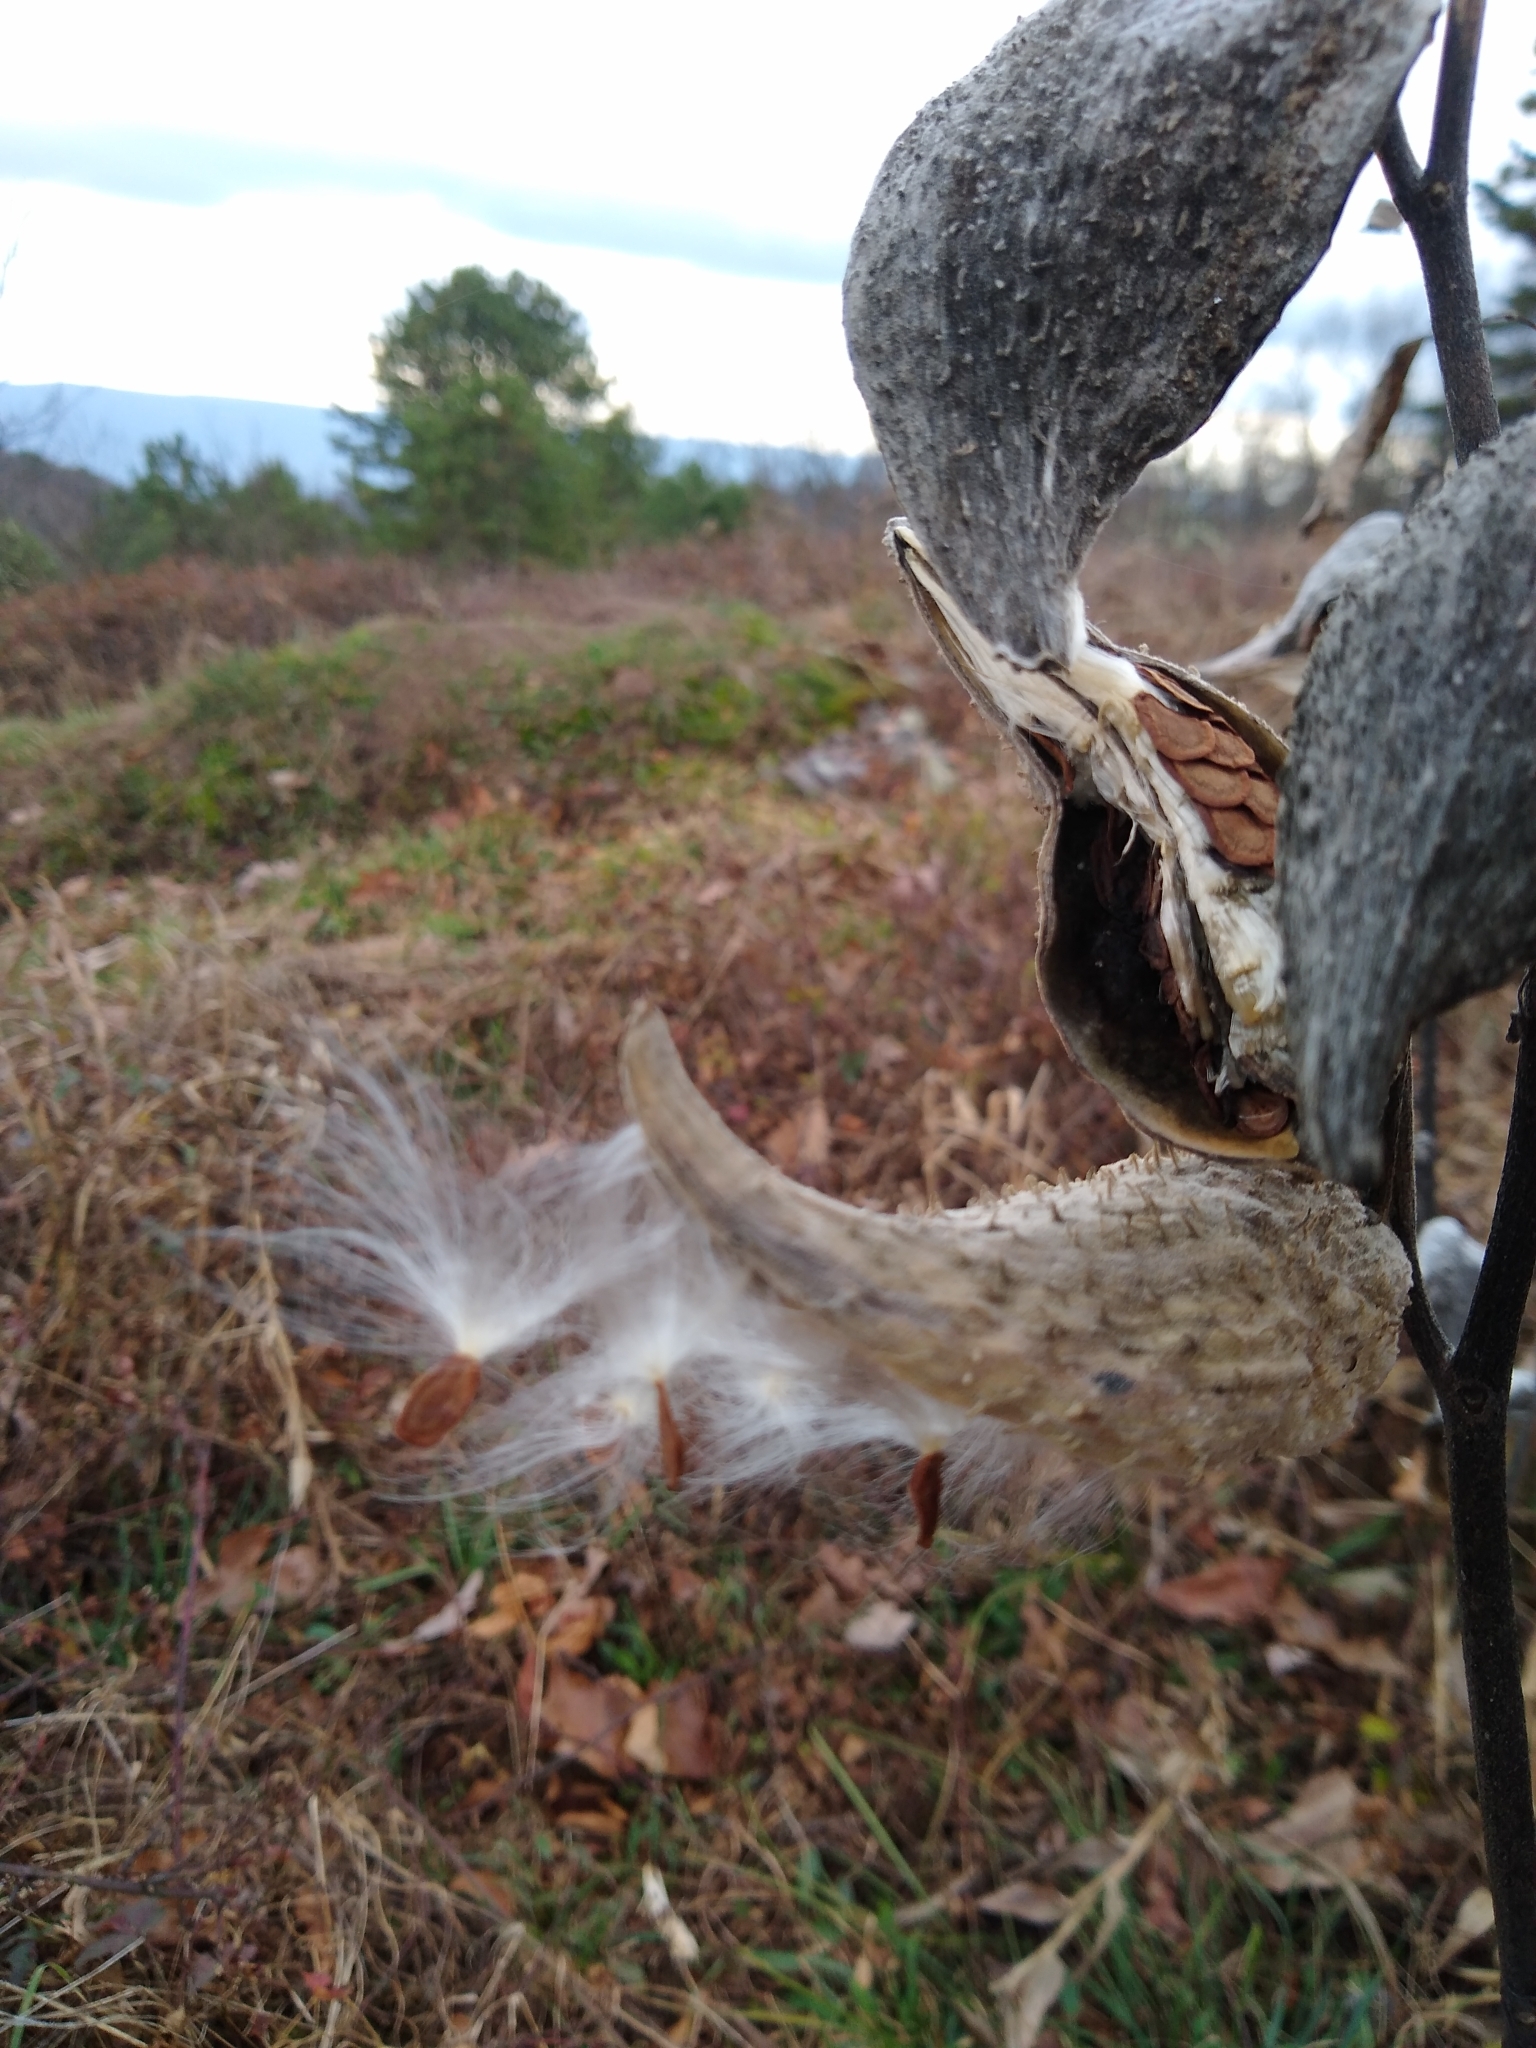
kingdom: Plantae
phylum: Tracheophyta
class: Magnoliopsida
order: Gentianales
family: Apocynaceae
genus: Asclepias
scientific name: Asclepias syriaca
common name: Common milkweed
